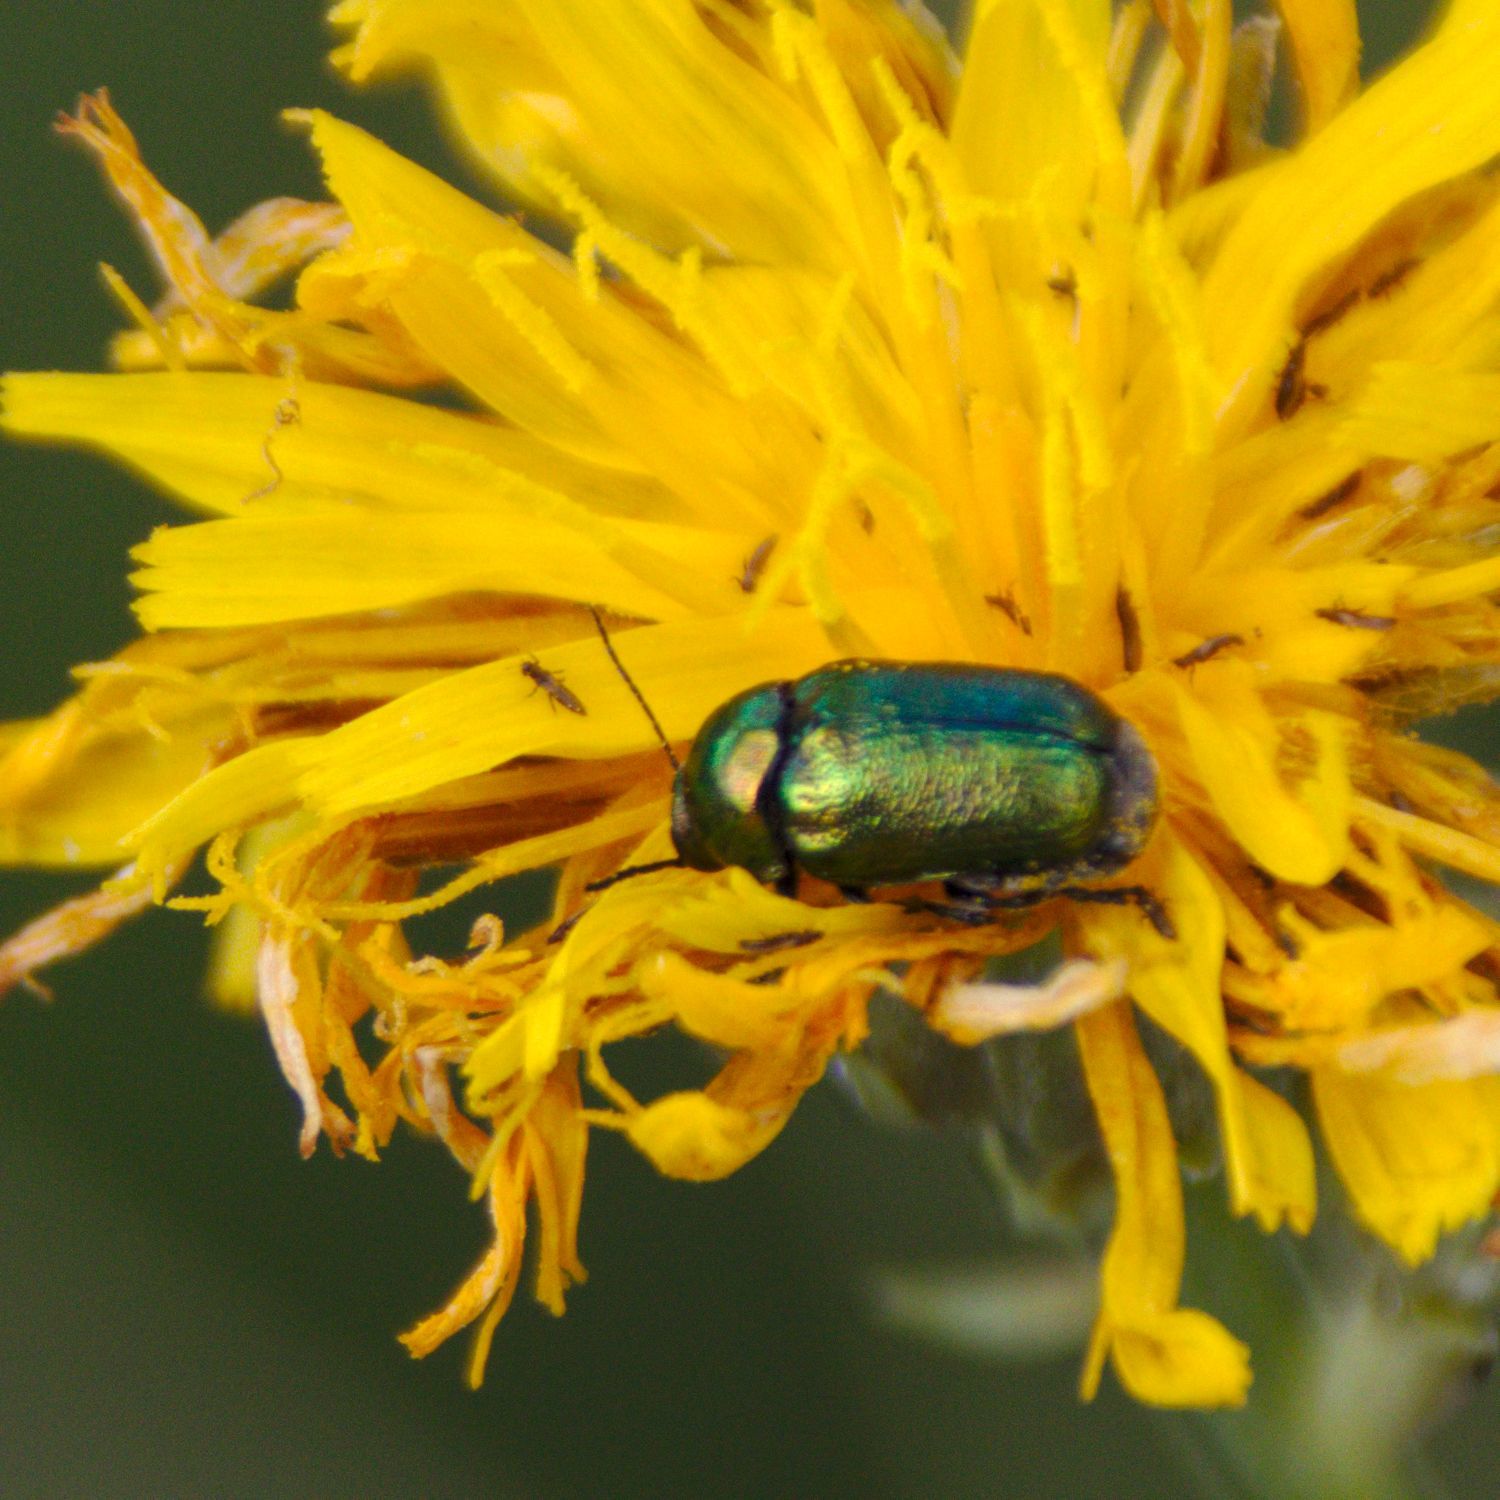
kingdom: Animalia
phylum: Arthropoda
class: Insecta
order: Coleoptera
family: Chrysomelidae
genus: Cryptocephalus
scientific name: Cryptocephalus
